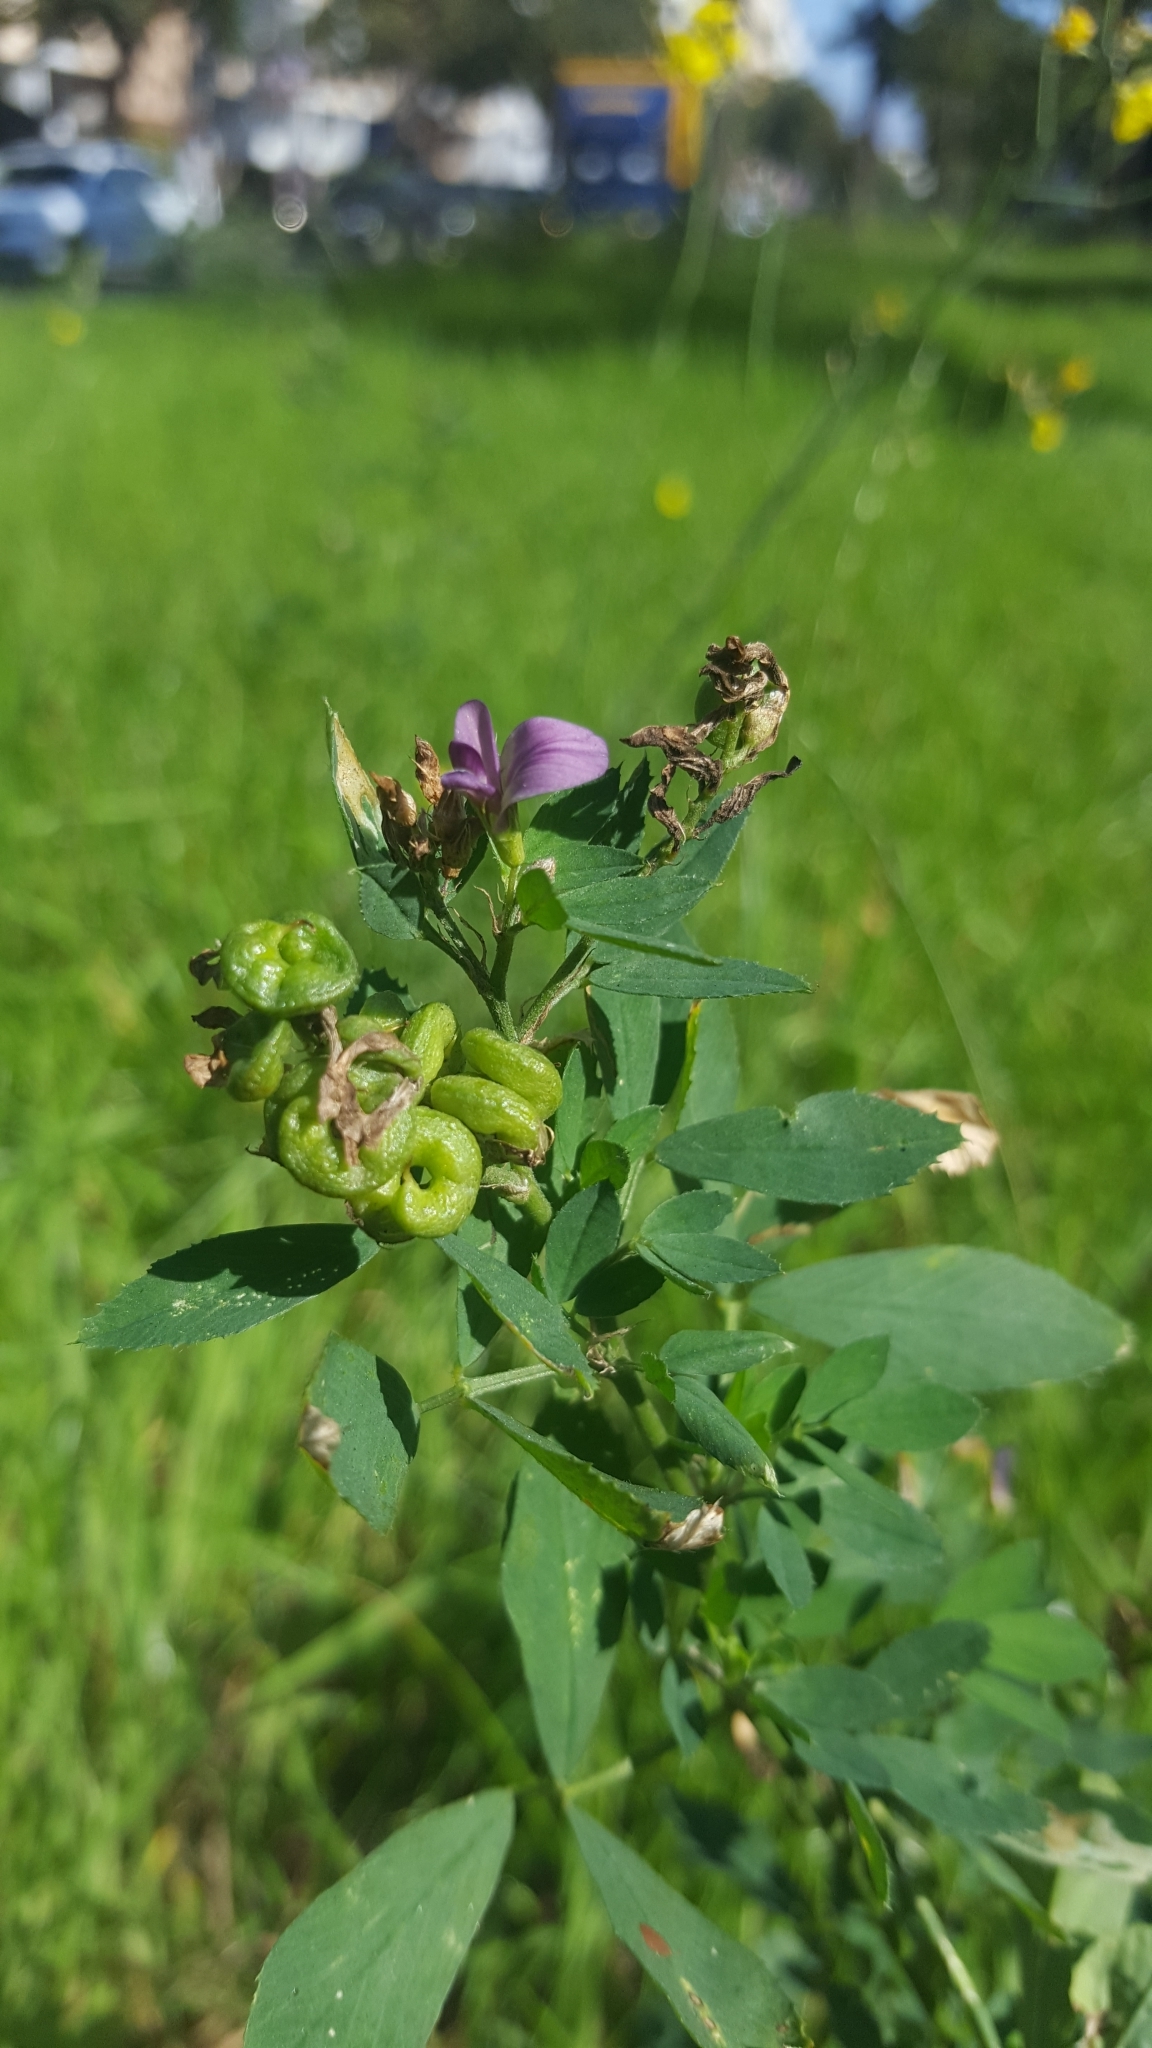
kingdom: Plantae
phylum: Tracheophyta
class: Magnoliopsida
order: Fabales
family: Fabaceae
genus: Medicago
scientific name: Medicago varia
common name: Sand lucerne
